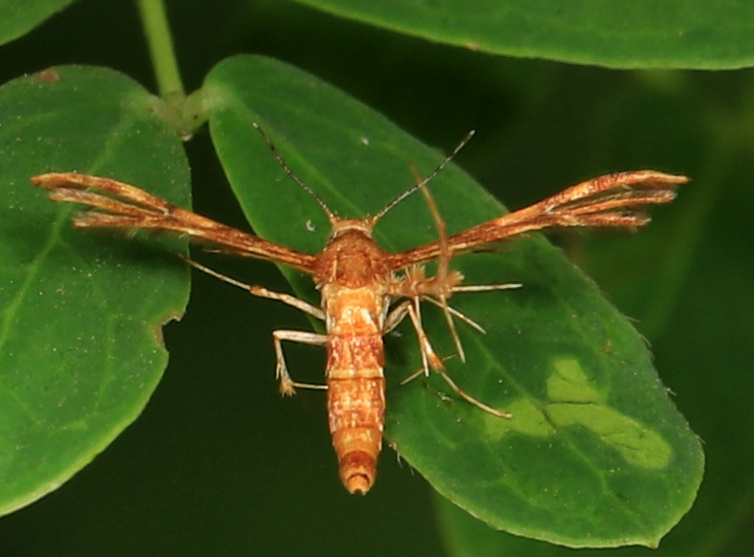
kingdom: Animalia
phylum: Arthropoda
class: Insecta
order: Lepidoptera
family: Pterophoridae
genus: Deuterocopus
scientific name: Deuterocopus socotranus
